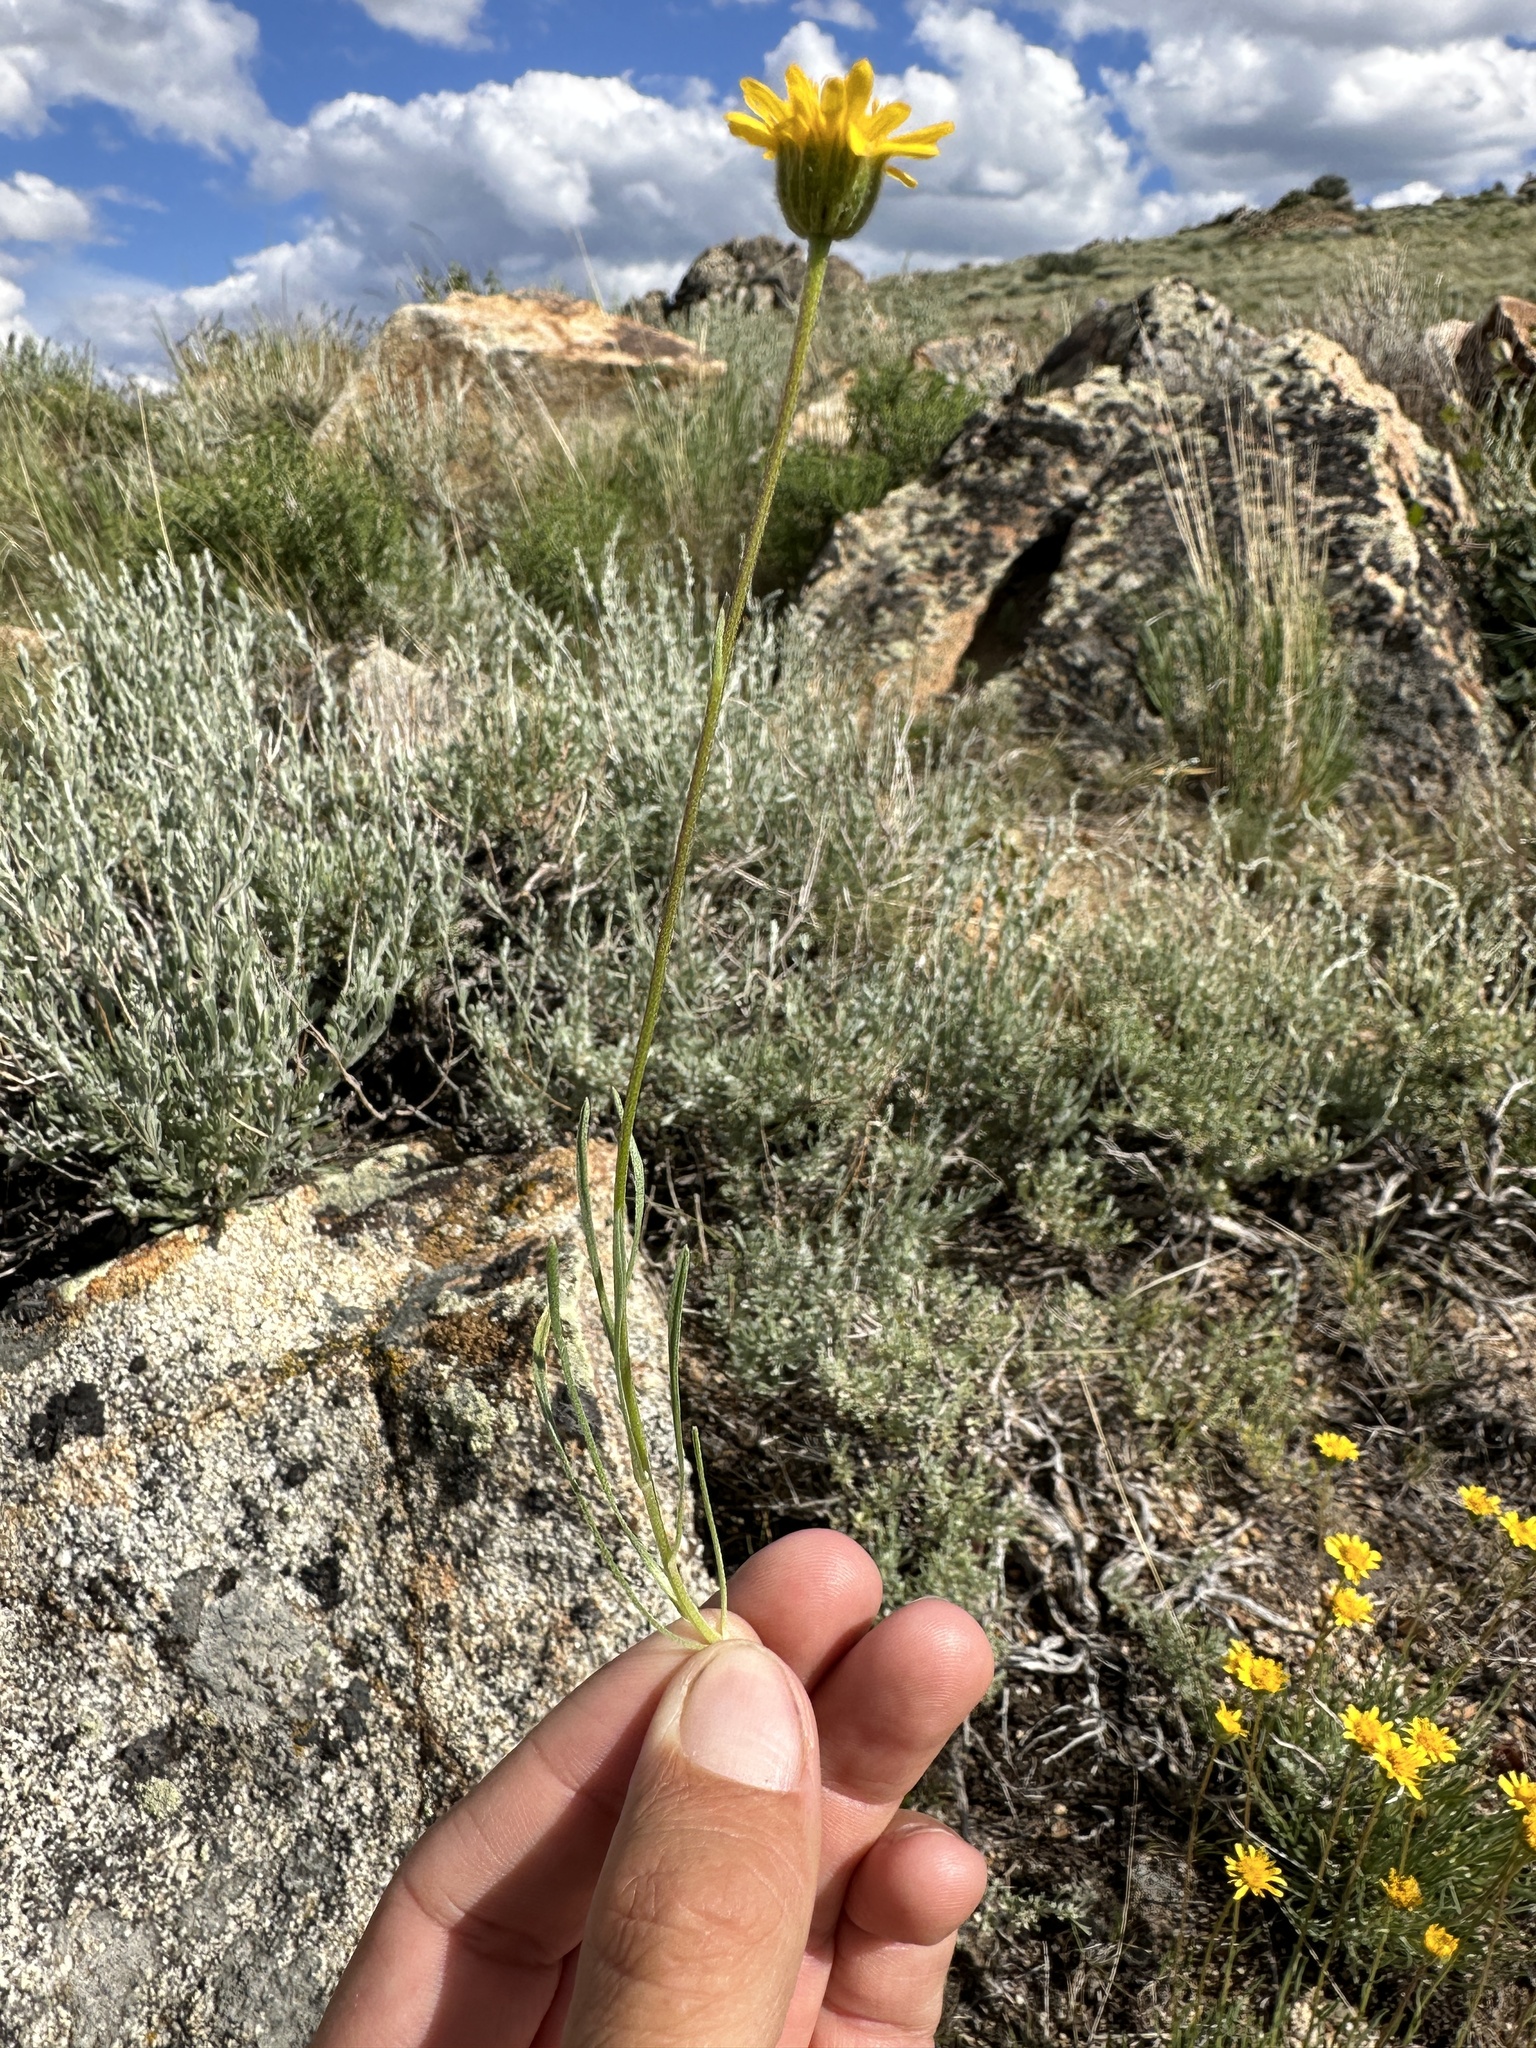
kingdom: Plantae
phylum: Tracheophyta
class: Magnoliopsida
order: Asterales
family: Asteraceae
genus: Erigeron
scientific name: Erigeron linearis
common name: Desert yellow fleabane
